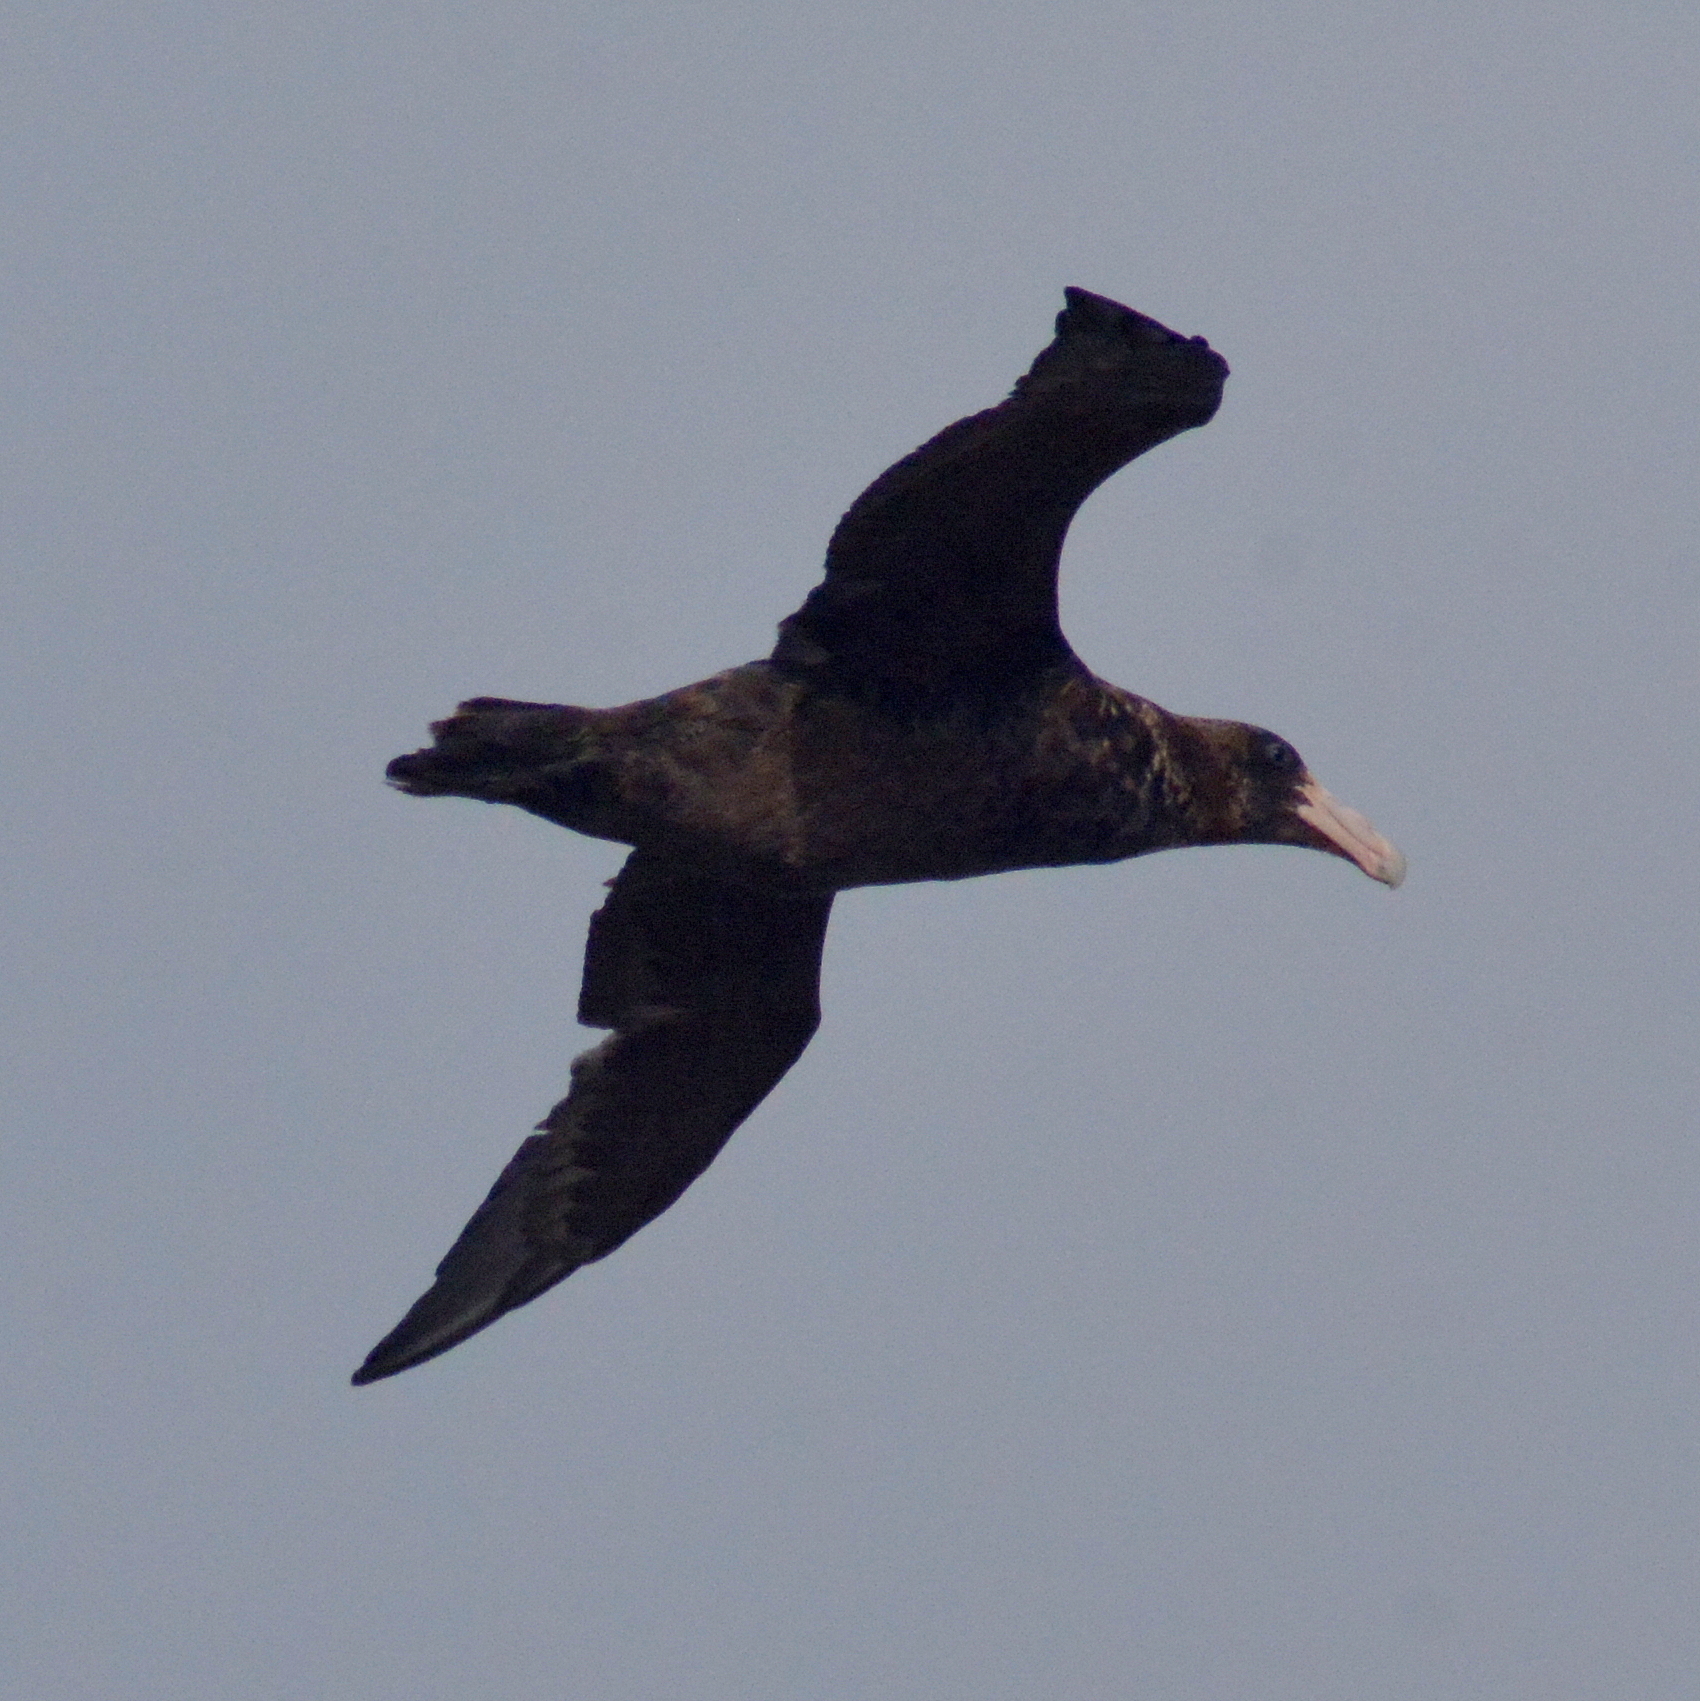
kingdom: Animalia
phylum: Chordata
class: Aves
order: Procellariiformes
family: Procellariidae
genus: Macronectes
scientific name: Macronectes giganteus
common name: Southern giant petrel
